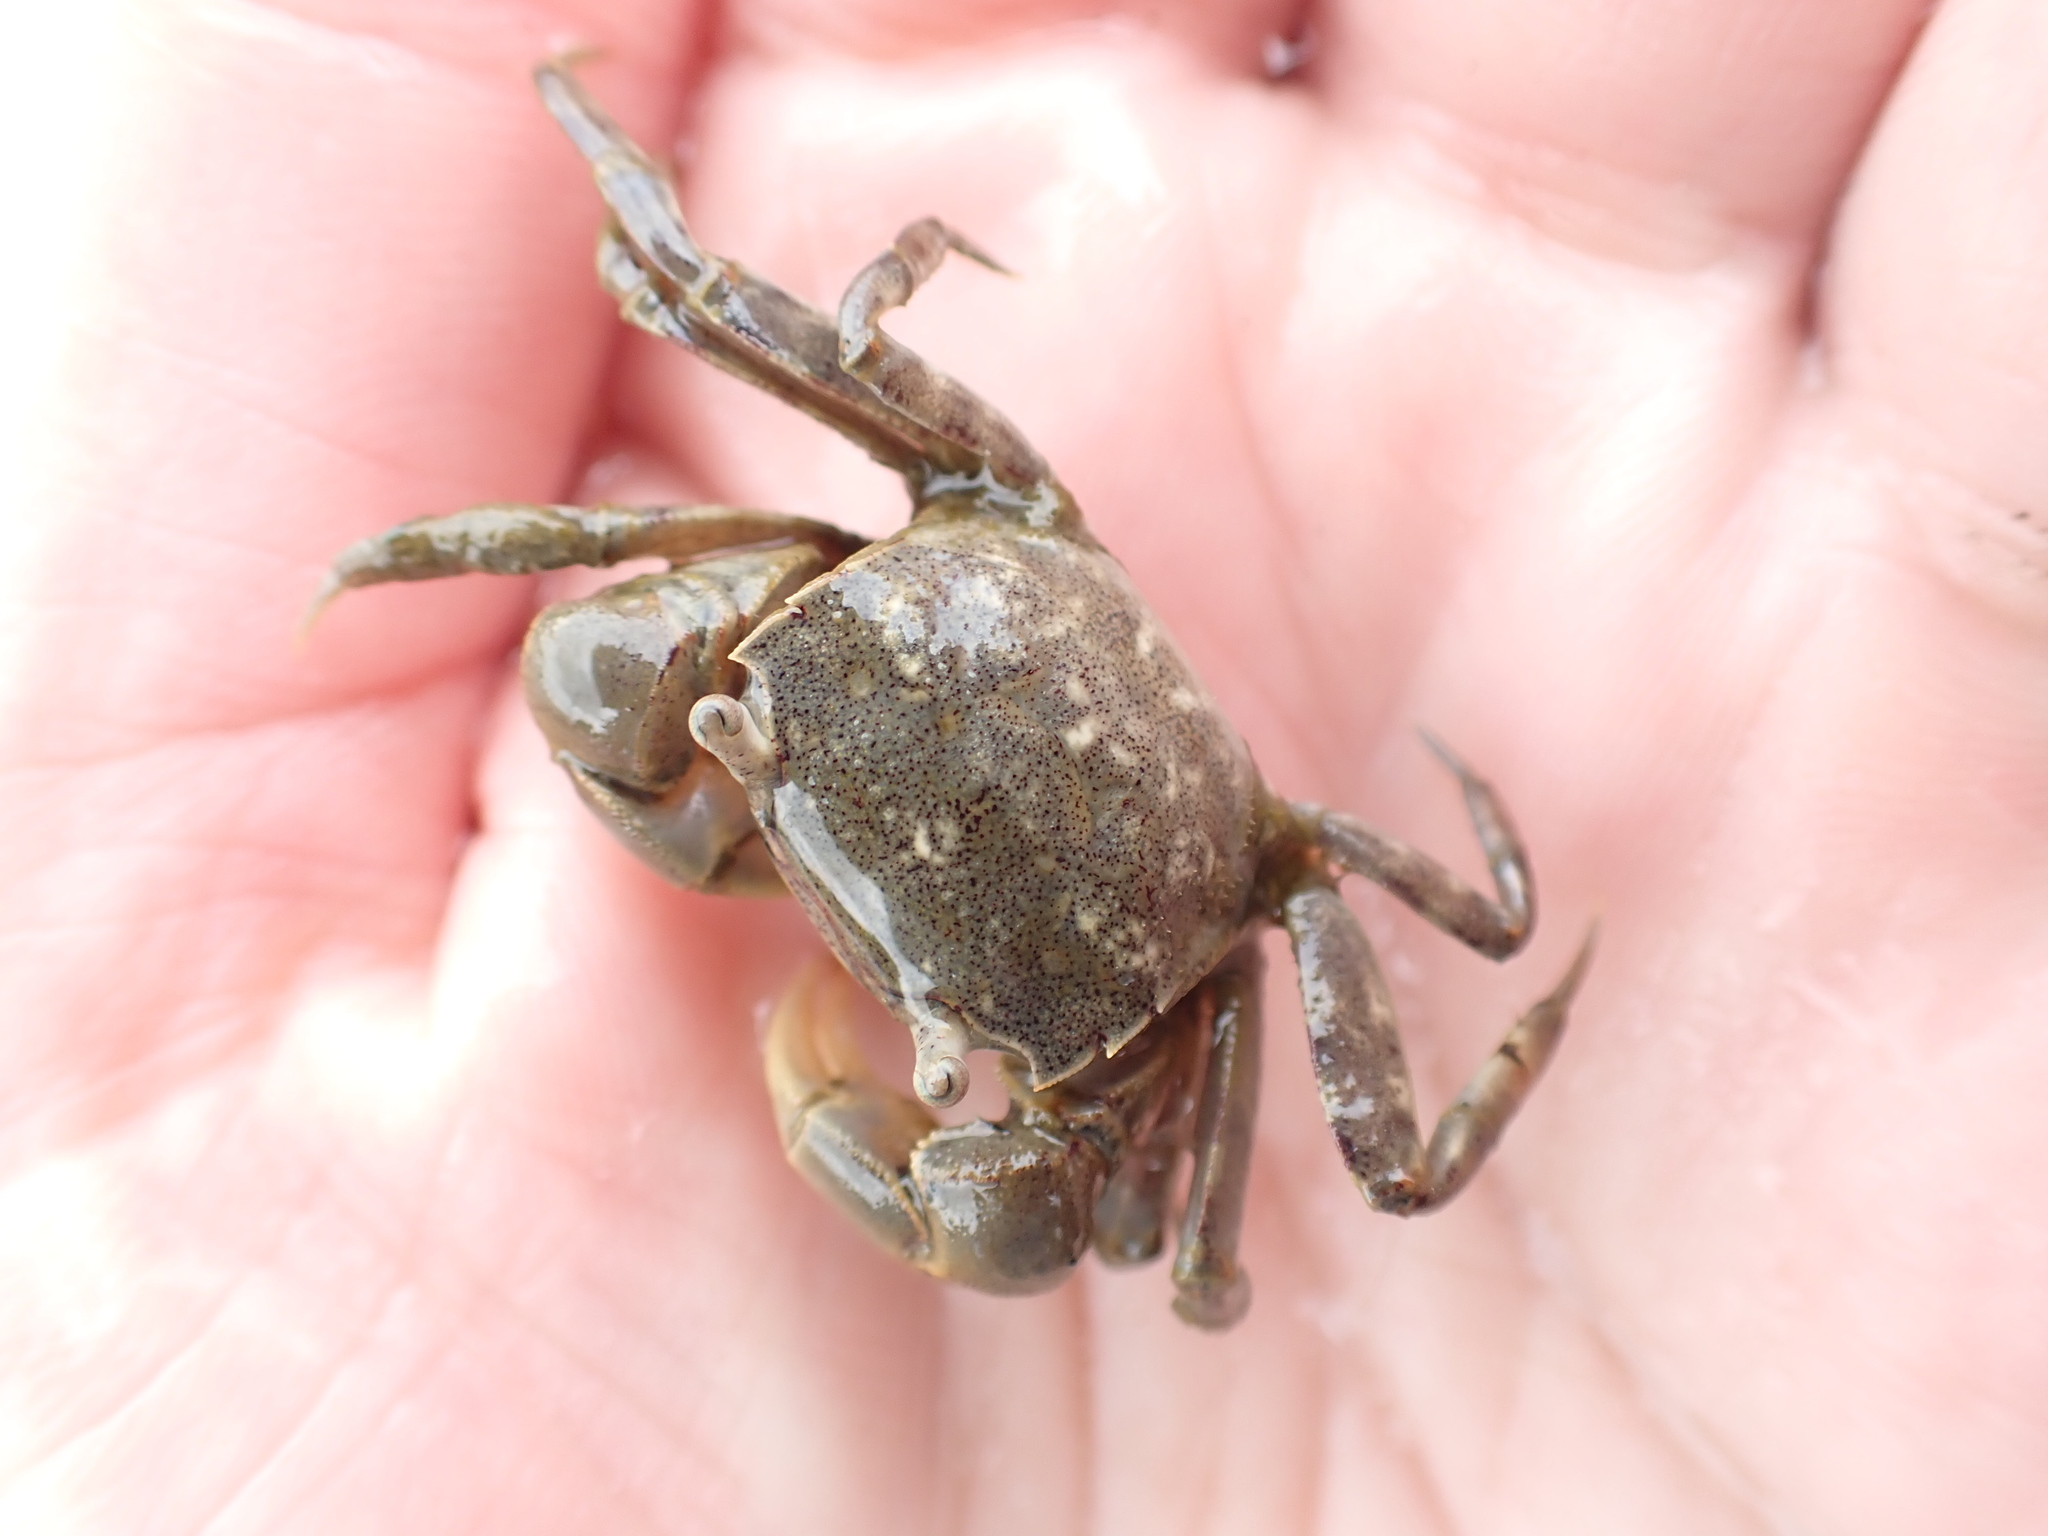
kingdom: Animalia
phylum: Arthropoda
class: Malacostraca
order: Decapoda
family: Varunidae
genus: Austrohelice
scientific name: Austrohelice crassa
